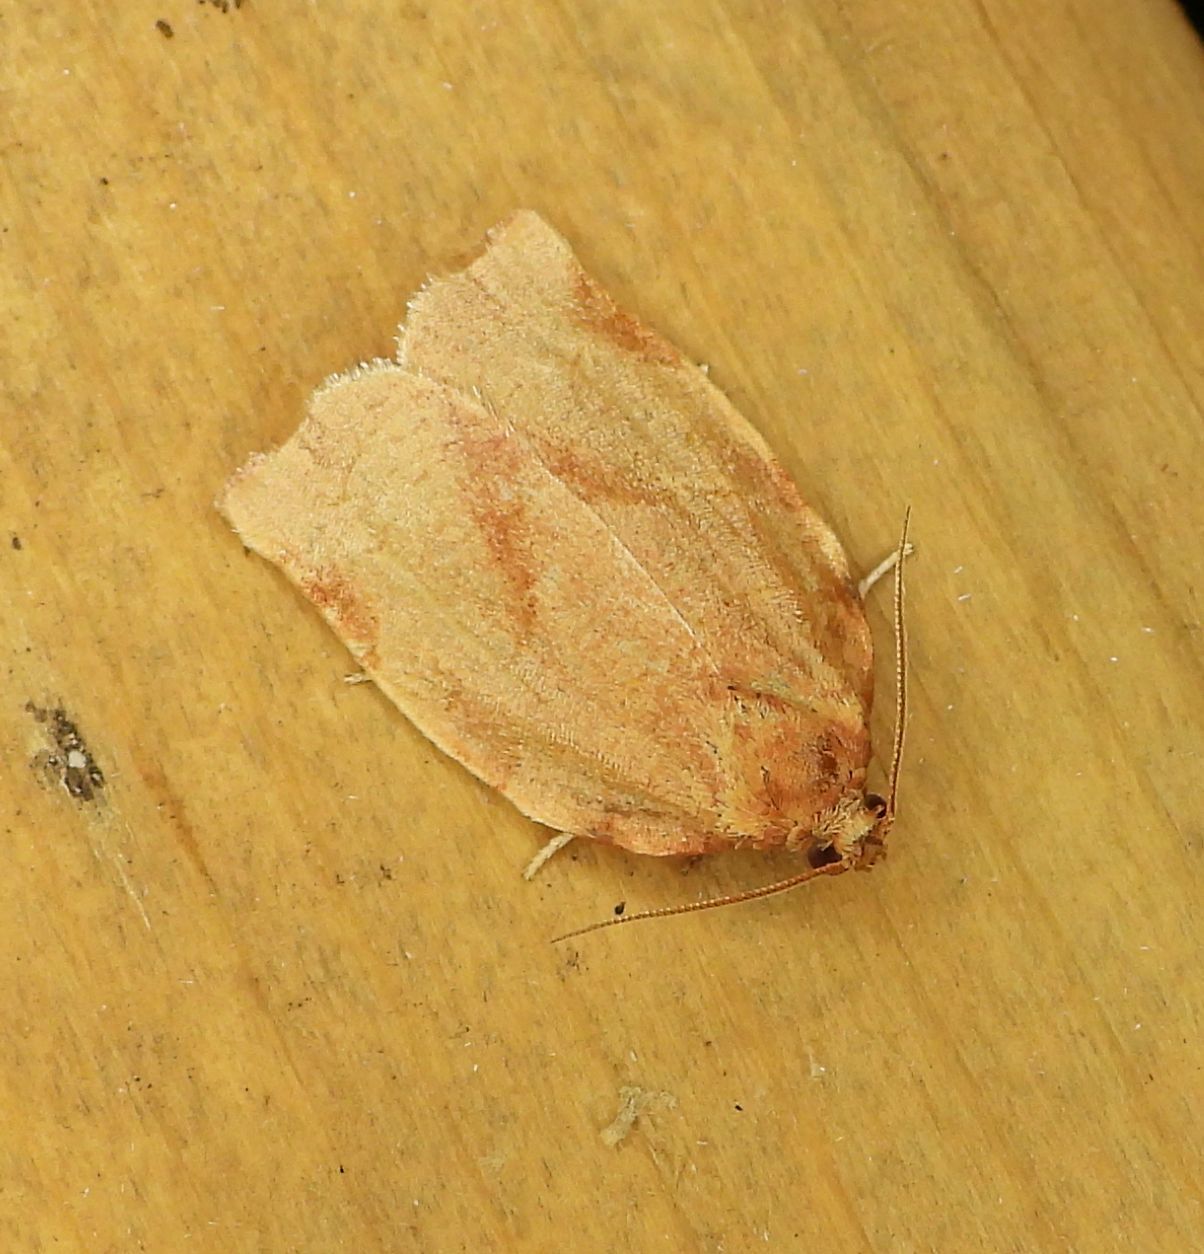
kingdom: Animalia
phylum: Arthropoda
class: Insecta
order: Lepidoptera
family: Tortricidae
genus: Choristoneura
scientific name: Choristoneura rosaceana
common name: Oblique-banded leafroller moth
